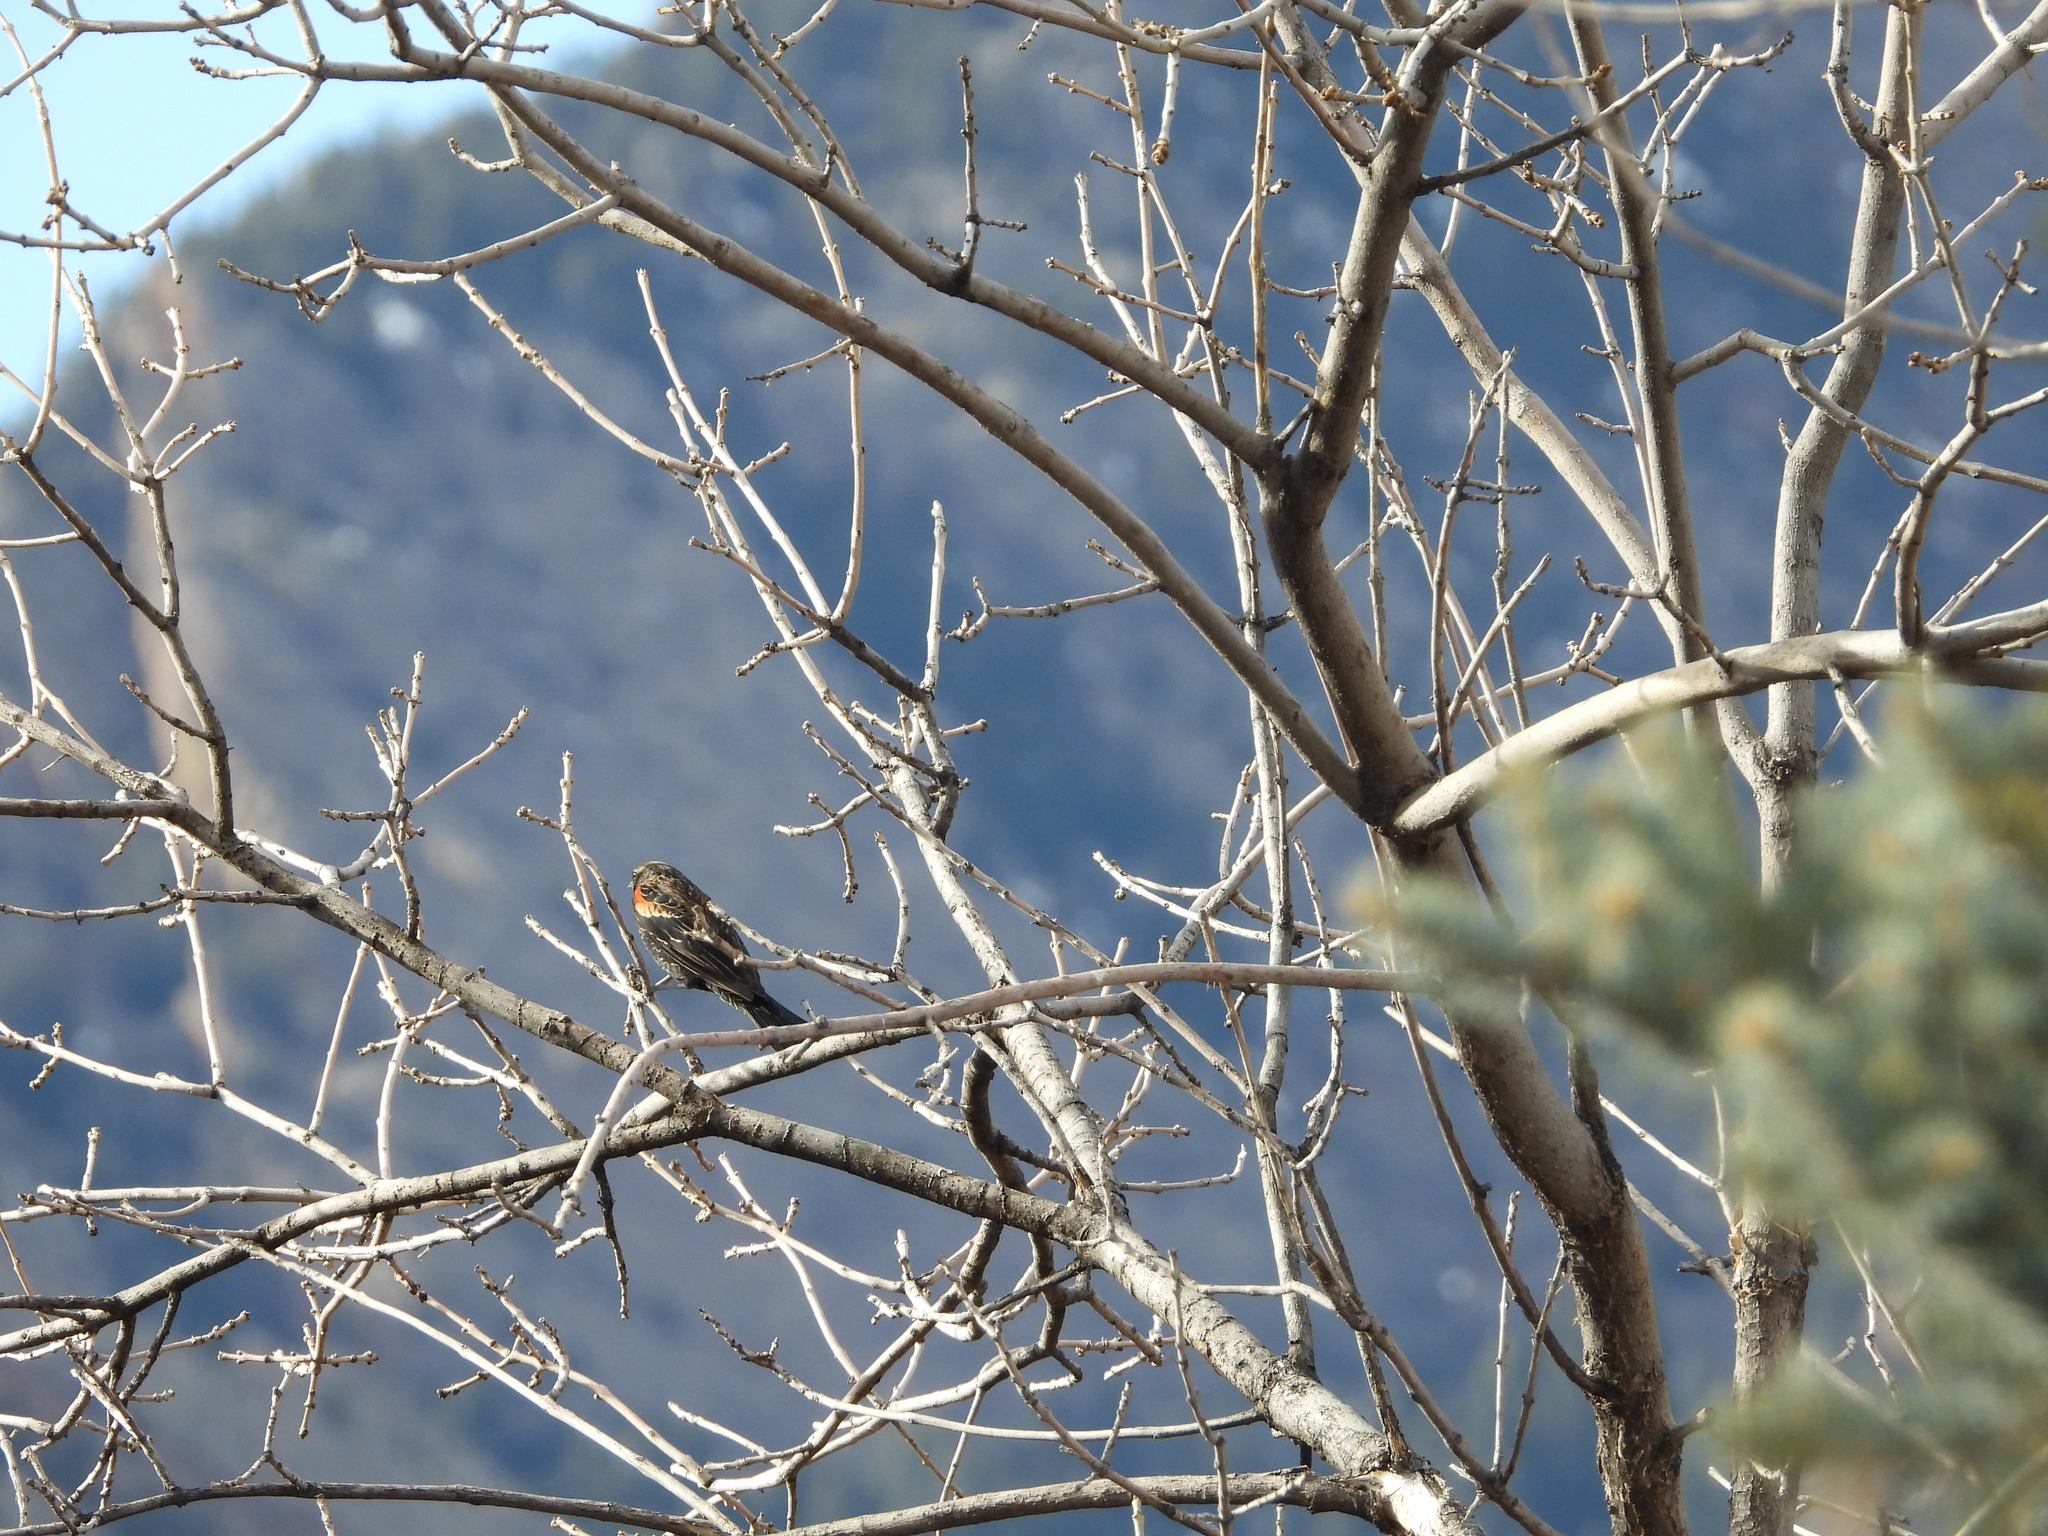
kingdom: Animalia
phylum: Chordata
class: Aves
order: Passeriformes
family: Icteridae
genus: Agelaius
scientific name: Agelaius phoeniceus
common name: Red-winged blackbird
